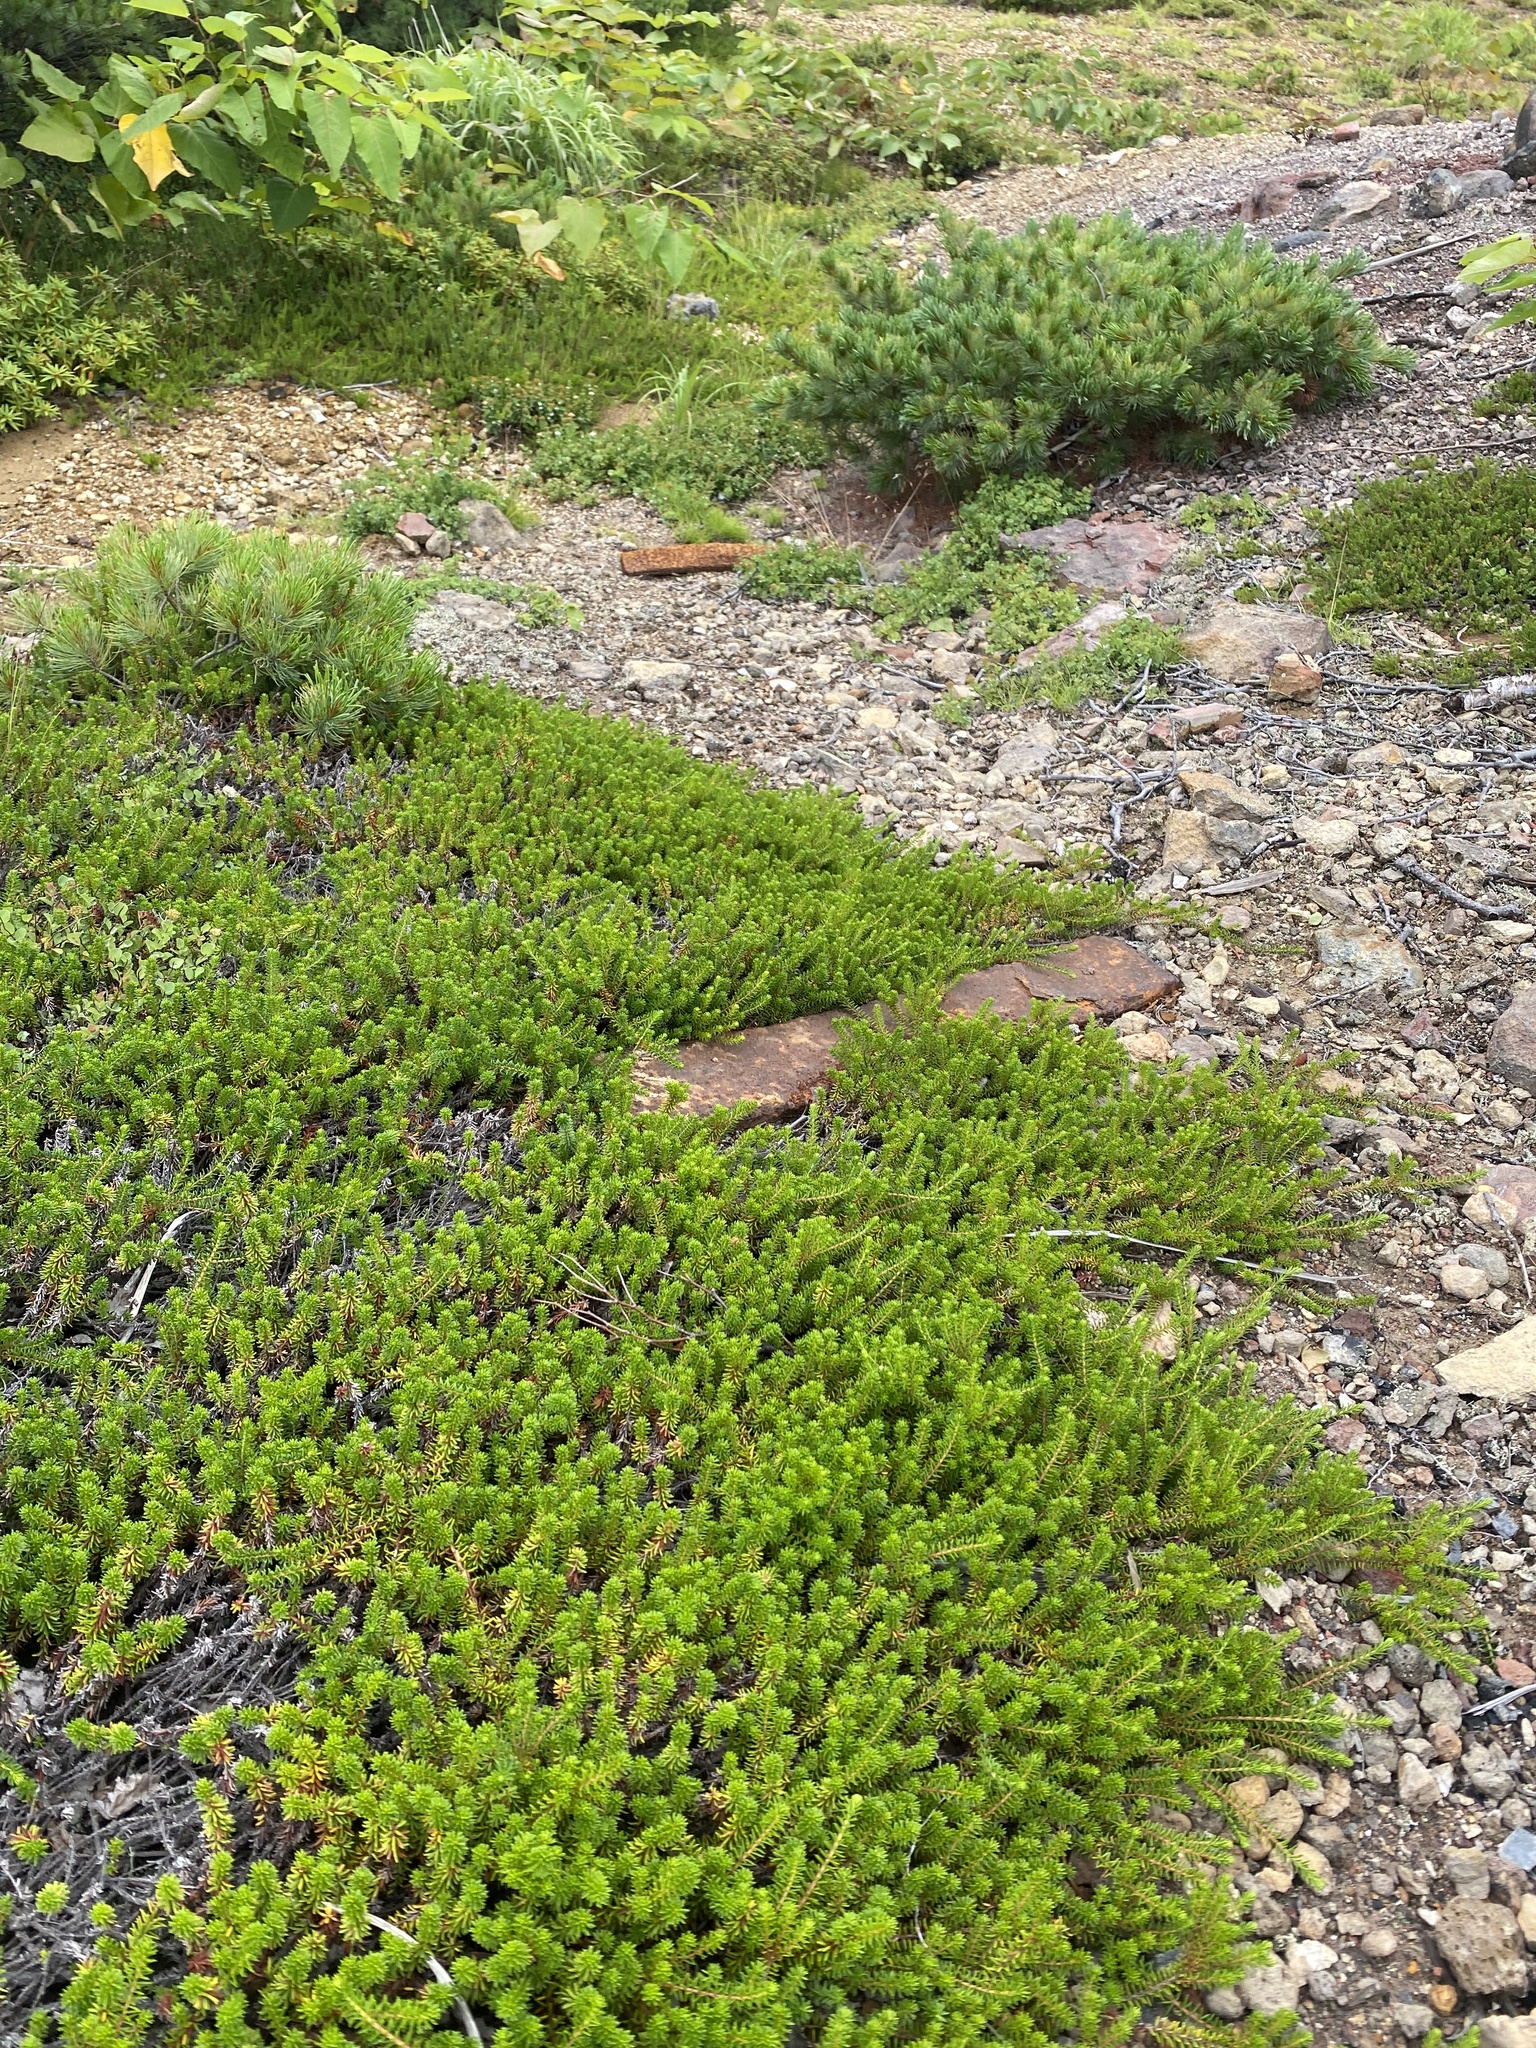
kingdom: Plantae
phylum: Tracheophyta
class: Magnoliopsida
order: Ericales
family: Ericaceae
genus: Empetrum
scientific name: Empetrum nigrum
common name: Black crowberry
